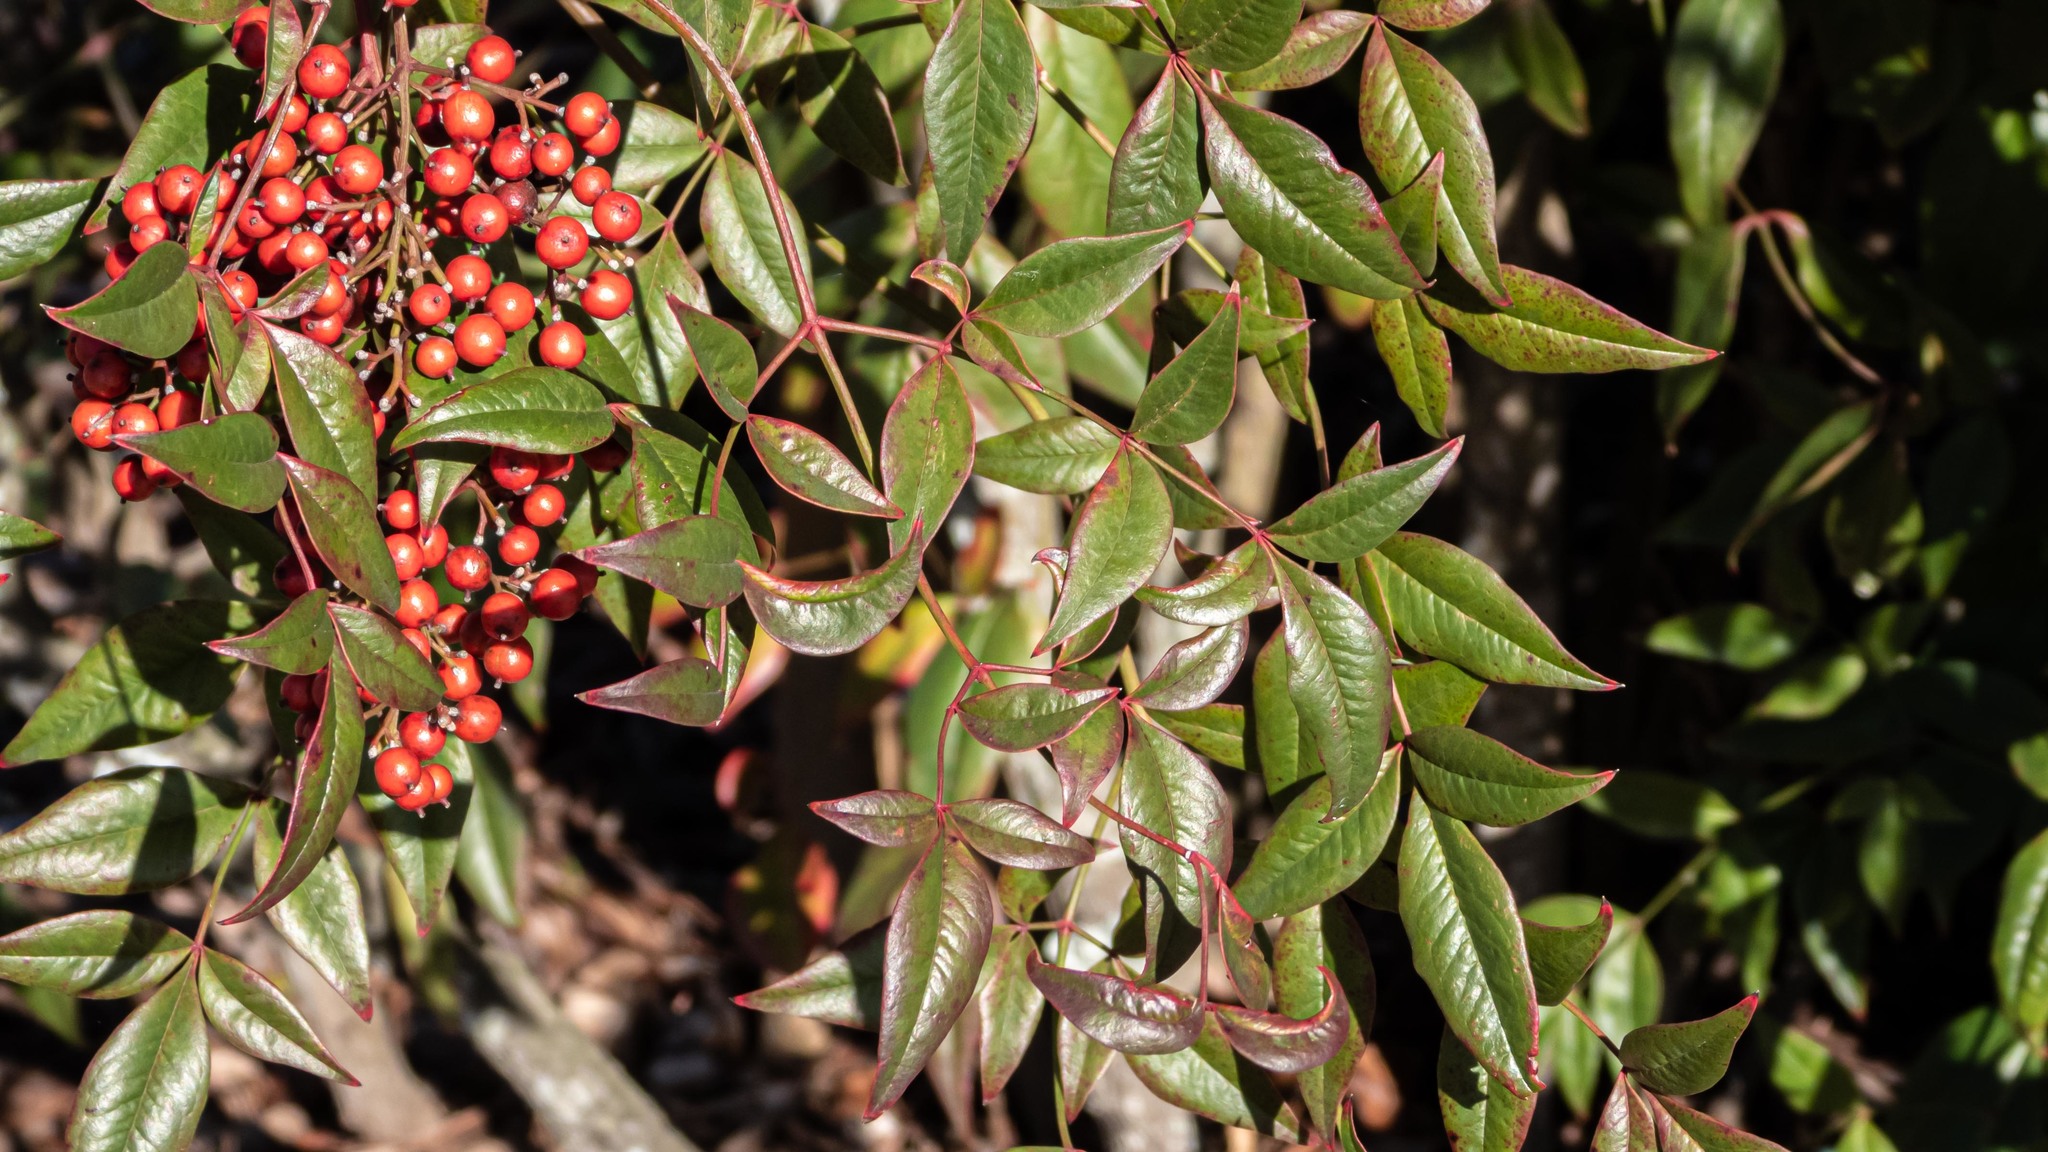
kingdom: Plantae
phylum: Tracheophyta
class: Magnoliopsida
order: Ranunculales
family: Berberidaceae
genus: Nandina
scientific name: Nandina domestica
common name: Sacred bamboo
